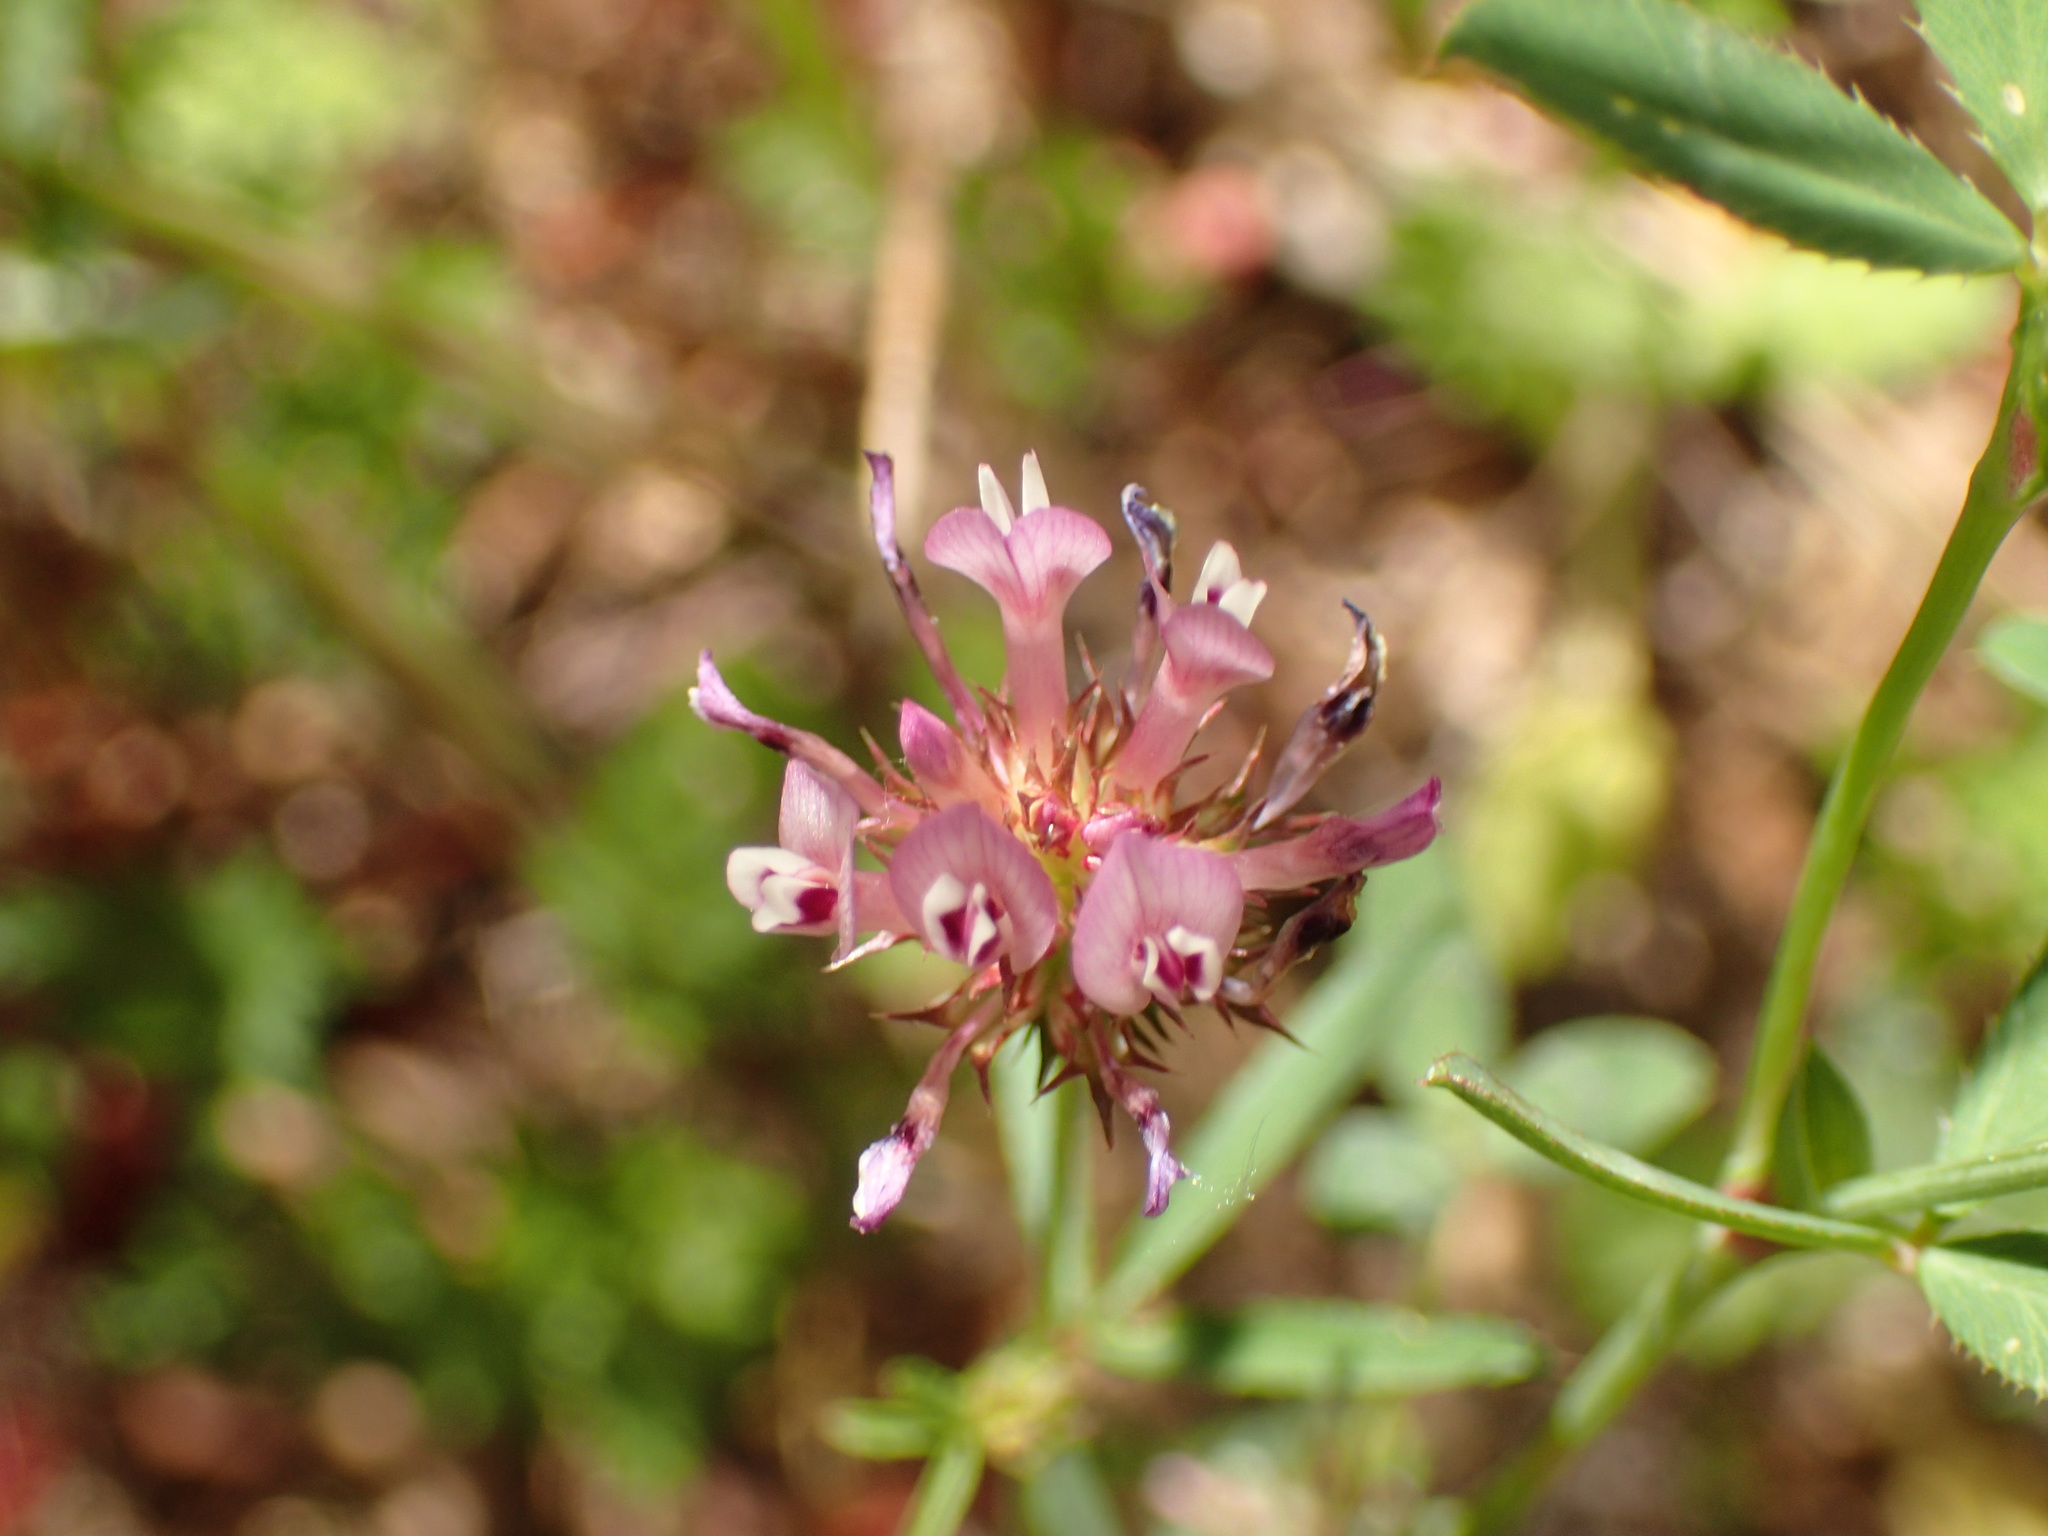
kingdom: Plantae
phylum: Tracheophyta
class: Magnoliopsida
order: Fabales
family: Fabaceae
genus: Trifolium
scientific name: Trifolium willdenovii
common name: Tomcat clover
